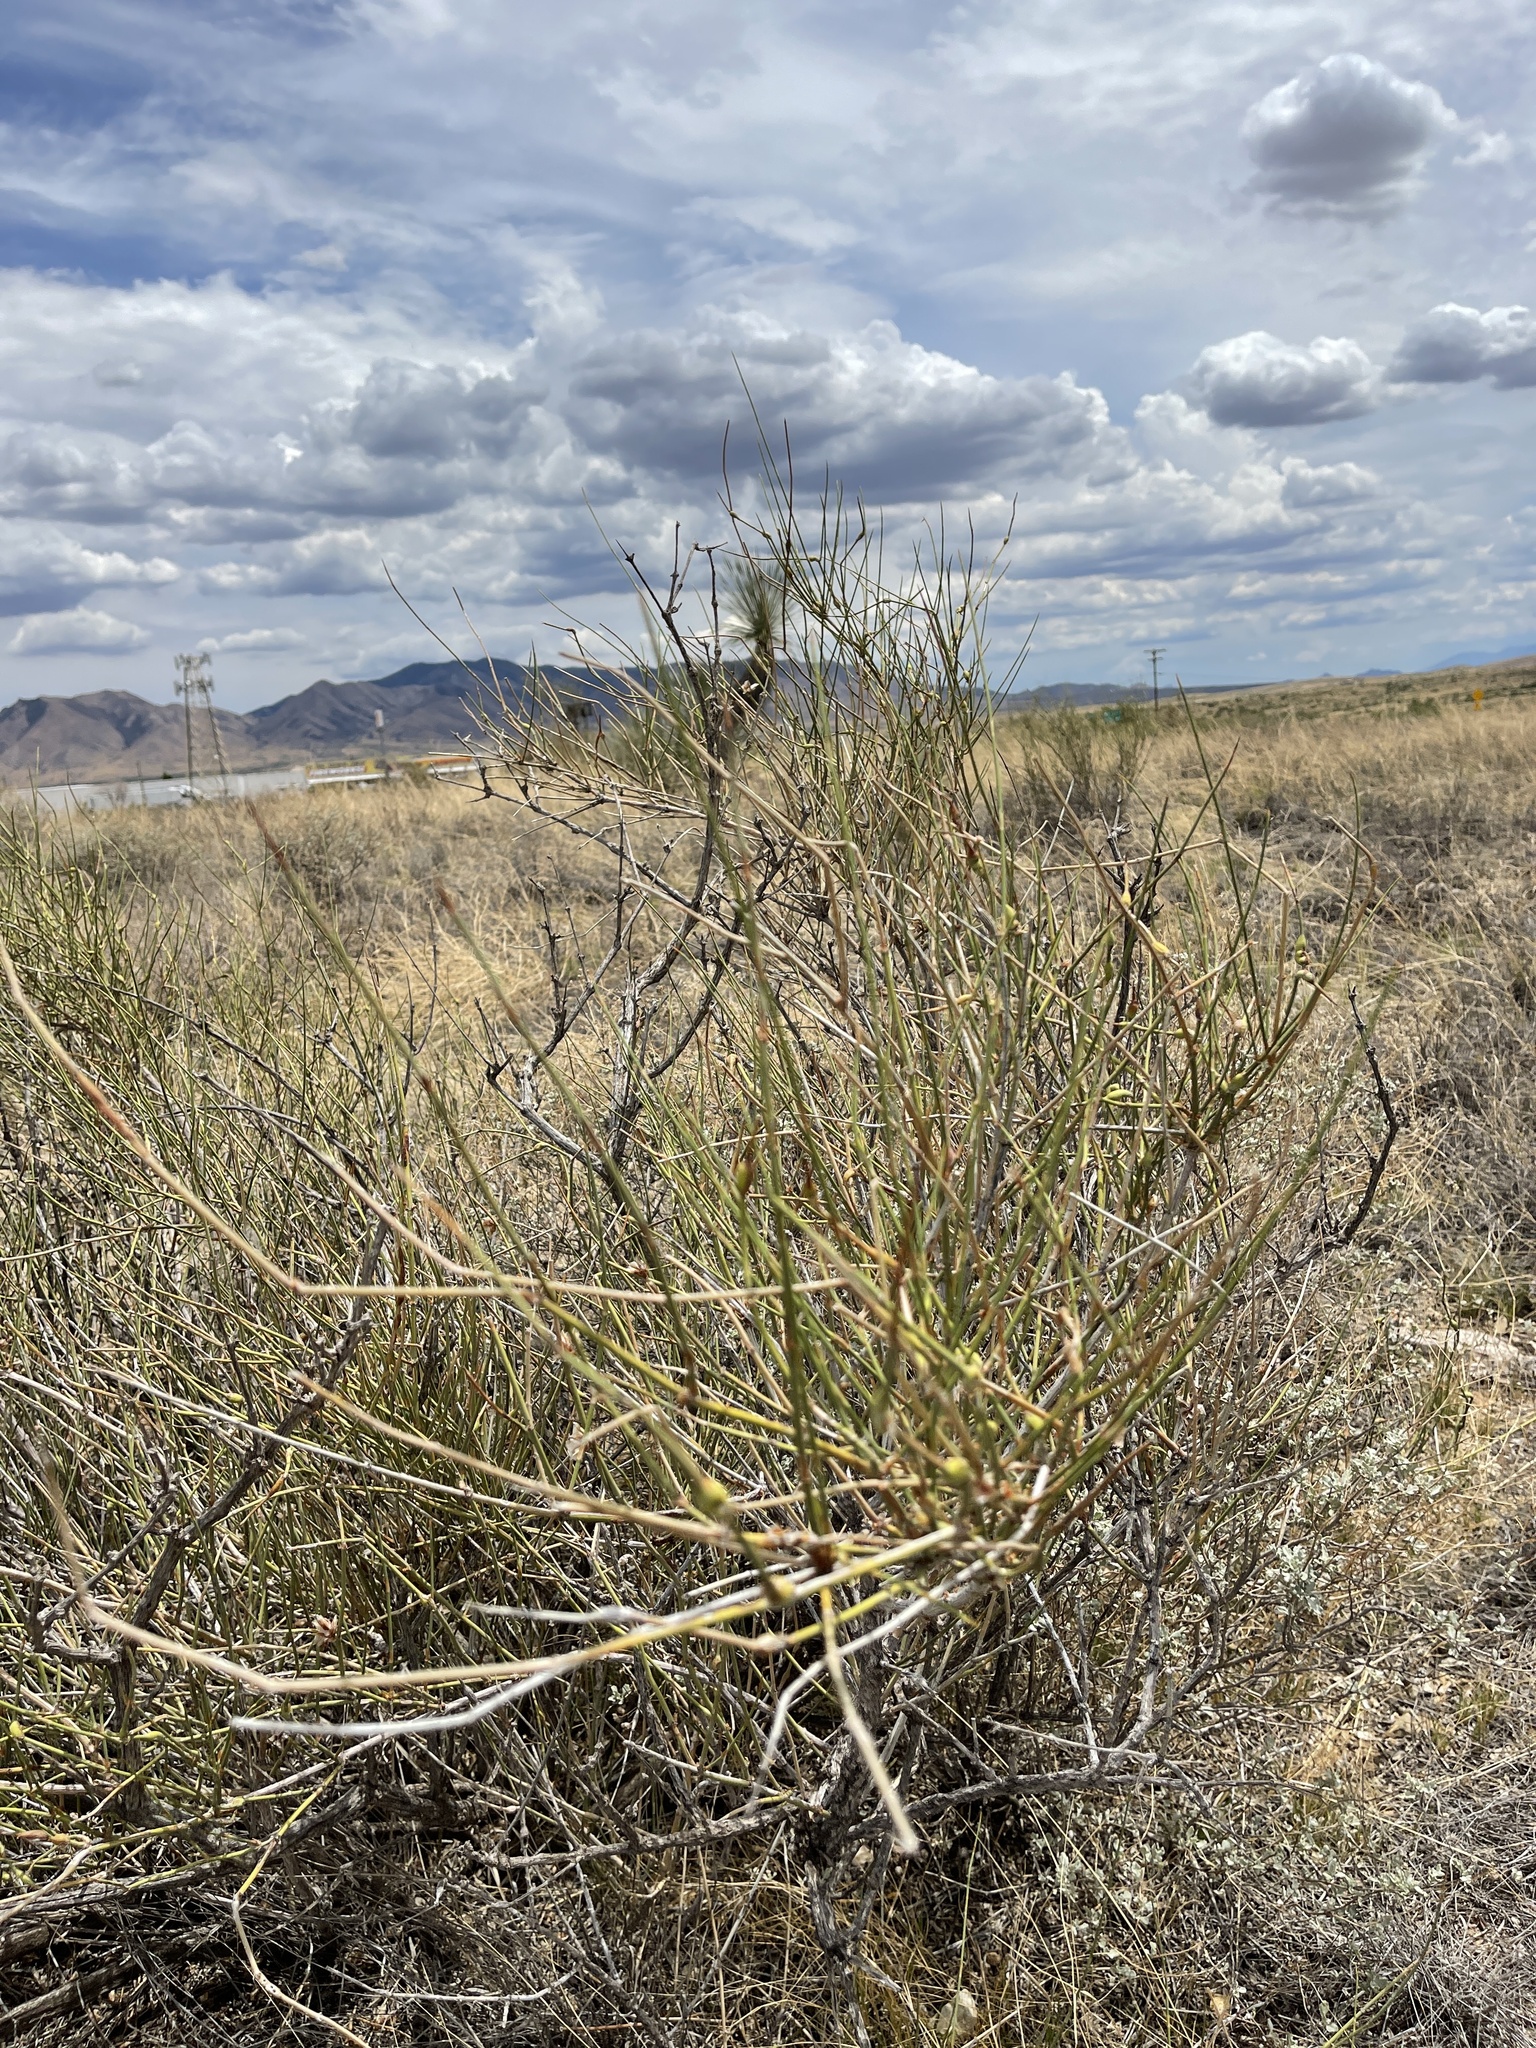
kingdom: Plantae
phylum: Tracheophyta
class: Gnetopsida
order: Ephedrales
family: Ephedraceae
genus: Ephedra
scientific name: Ephedra trifurca
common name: Mexican-tea
